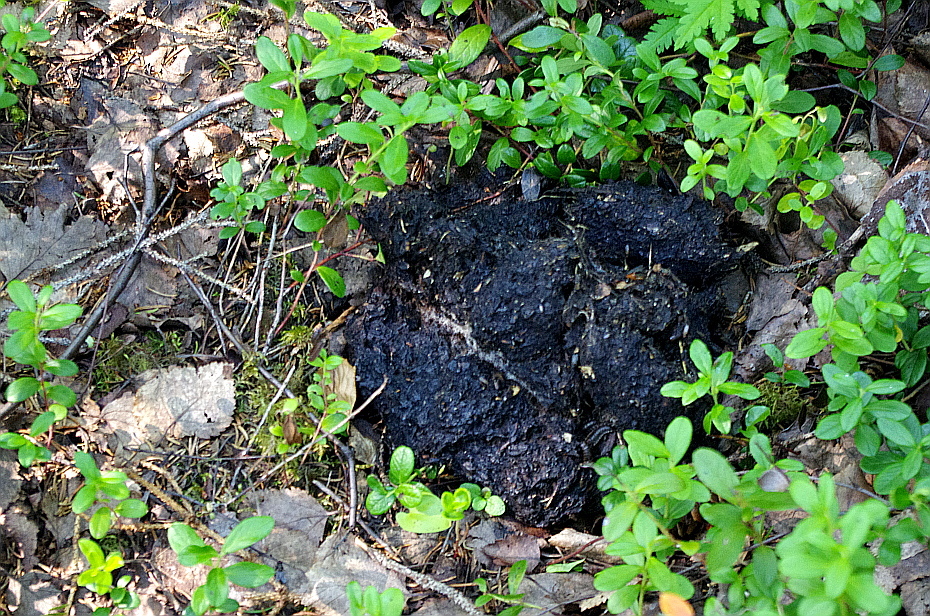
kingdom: Animalia
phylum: Chordata
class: Mammalia
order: Carnivora
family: Ursidae
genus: Ursus
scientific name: Ursus arctos
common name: Brown bear
